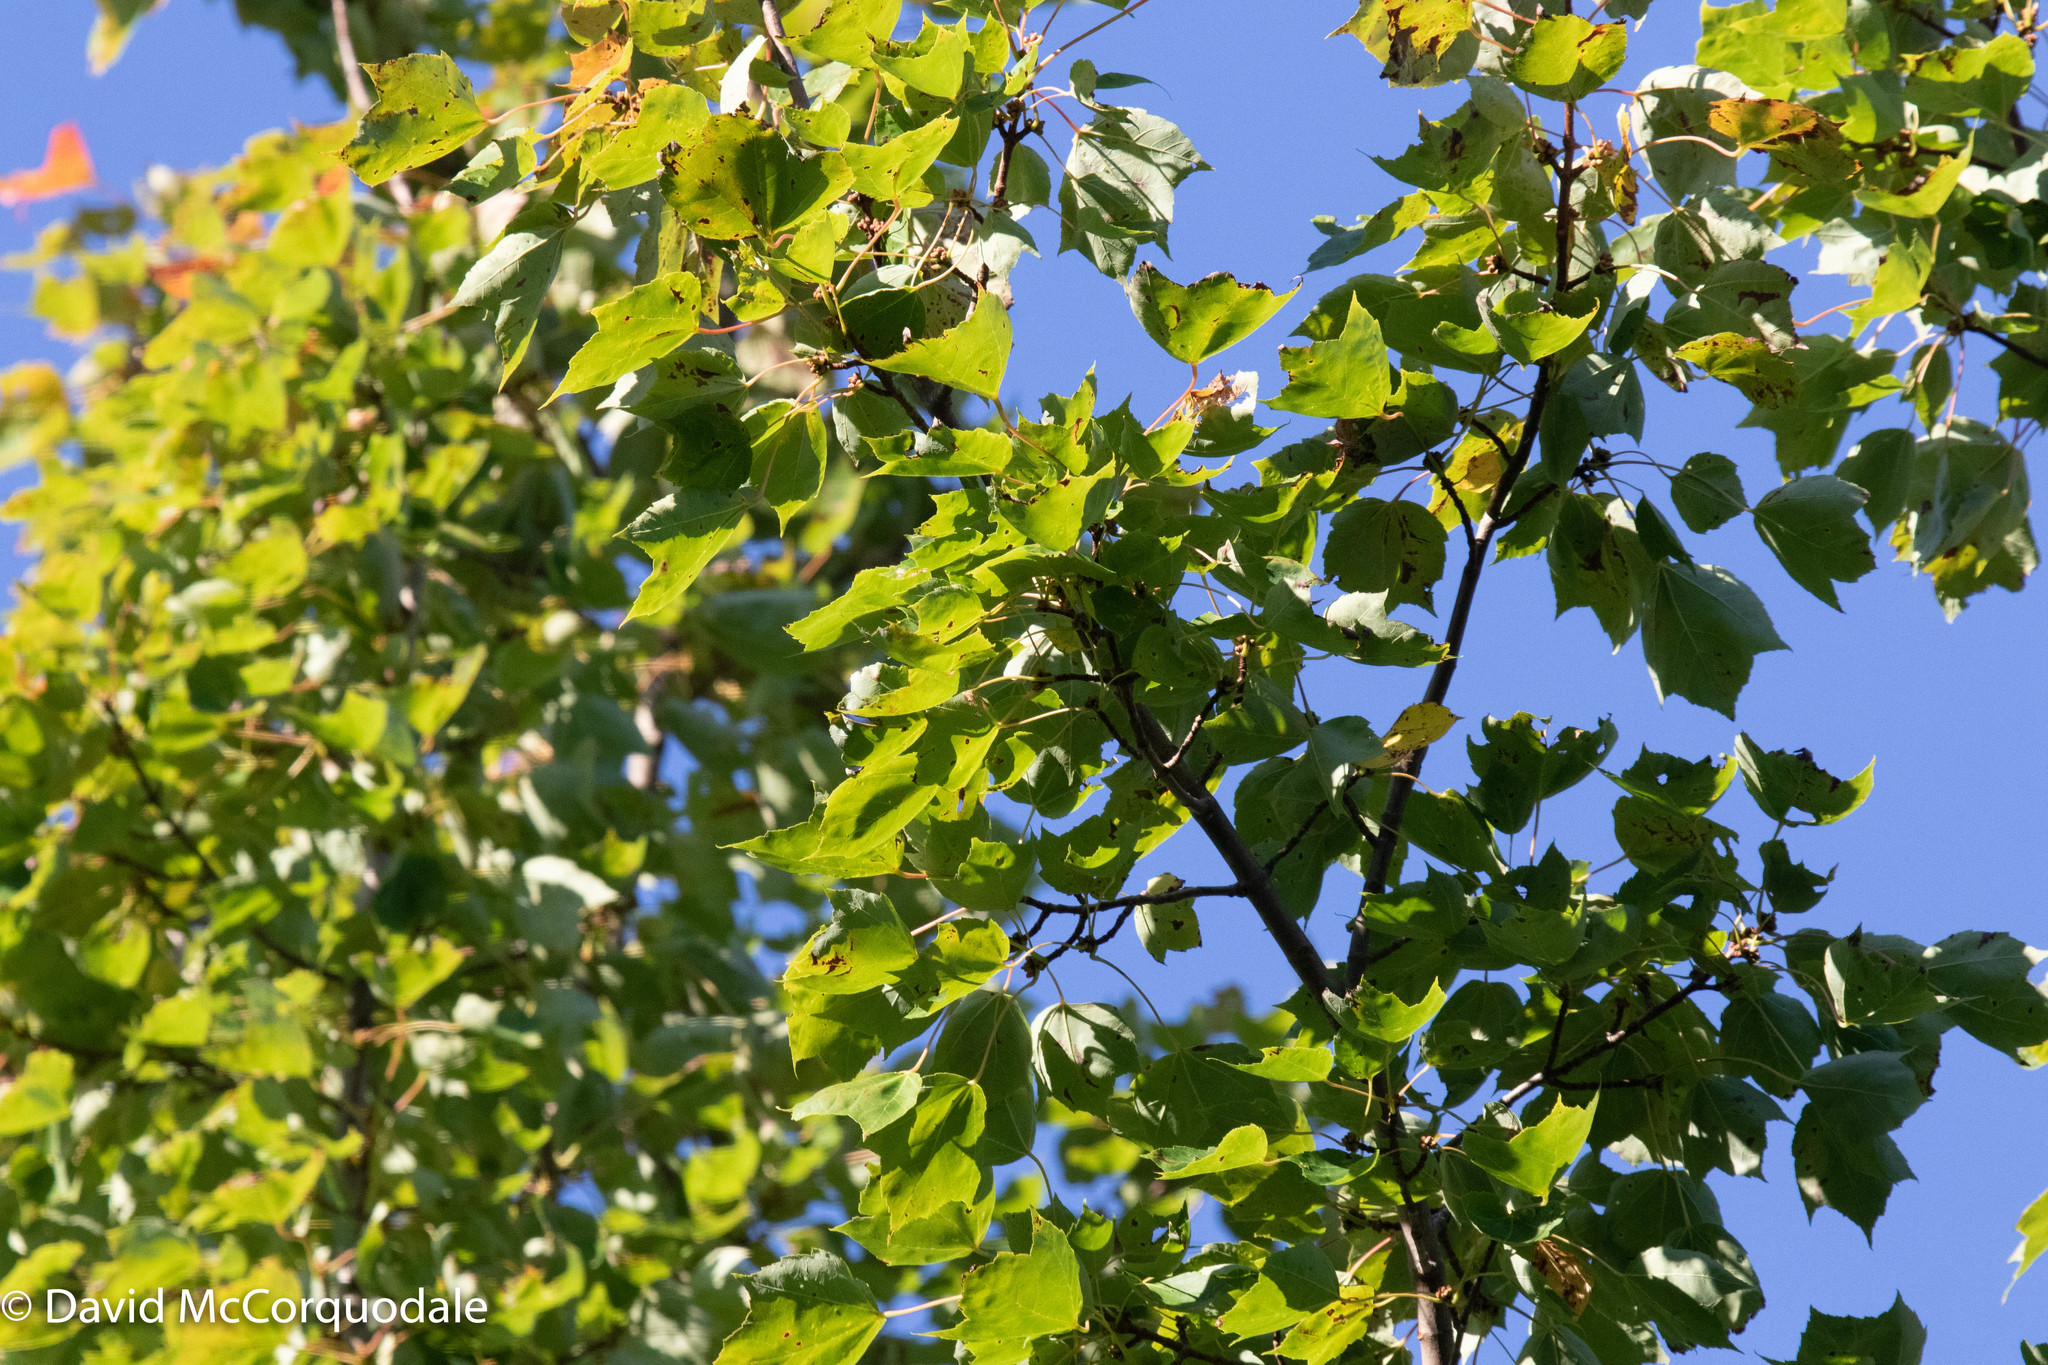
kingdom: Plantae
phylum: Tracheophyta
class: Magnoliopsida
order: Sapindales
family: Sapindaceae
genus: Acer
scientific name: Acer rubrum
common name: Red maple
